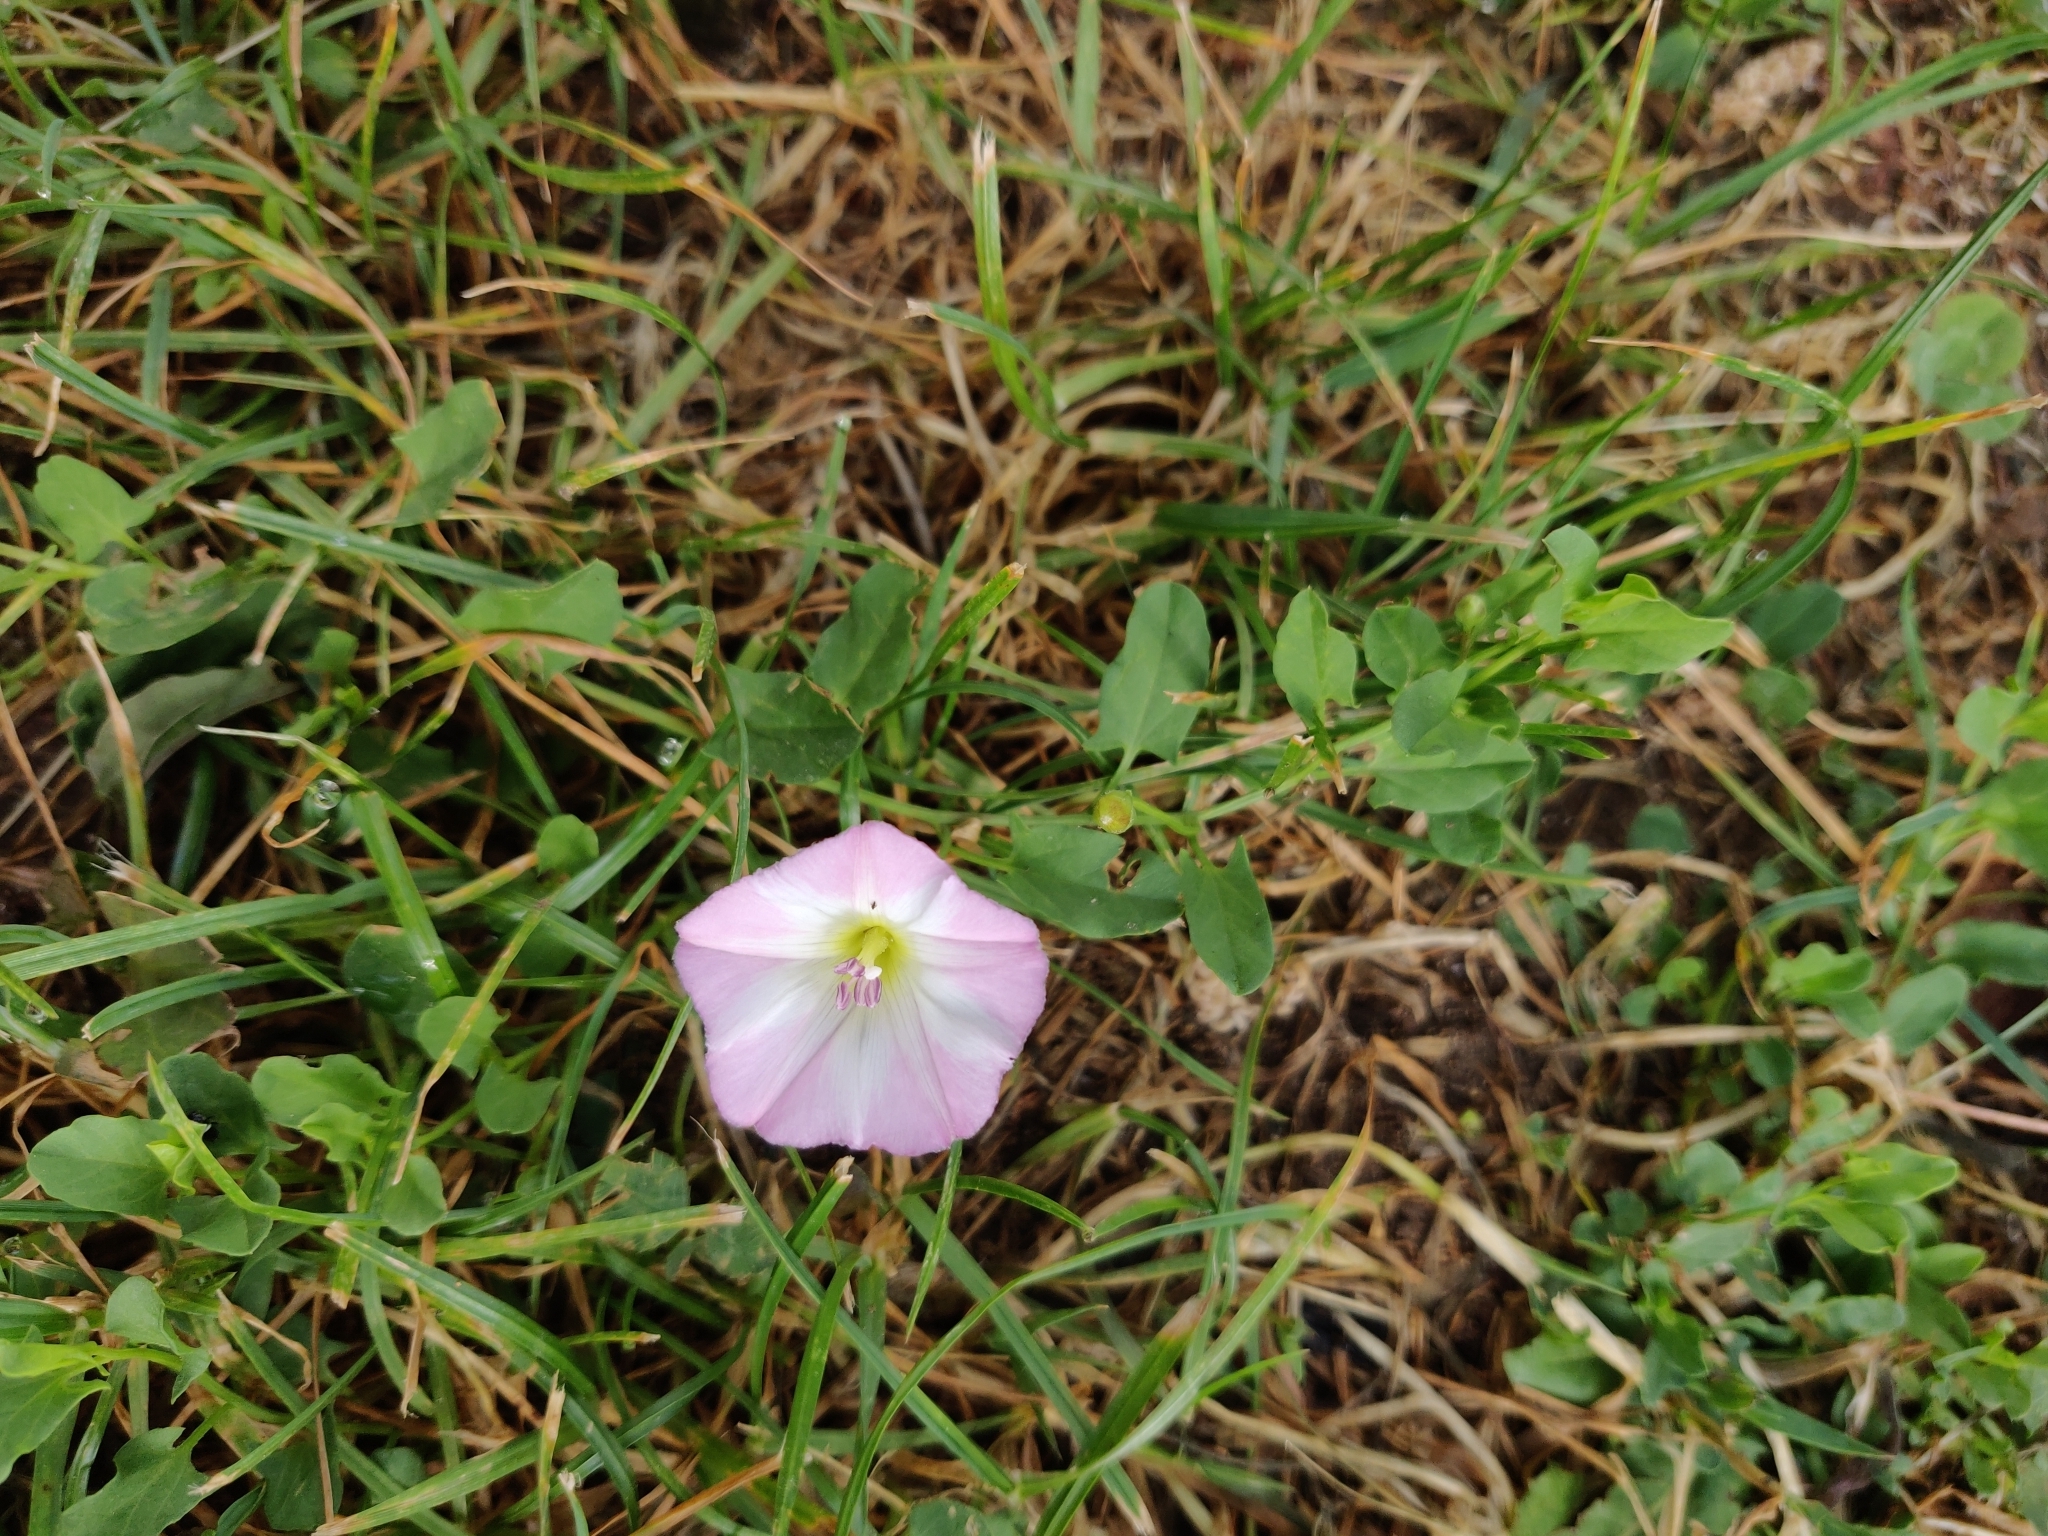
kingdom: Plantae
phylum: Tracheophyta
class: Magnoliopsida
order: Solanales
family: Convolvulaceae
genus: Convolvulus
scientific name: Convolvulus arvensis
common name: Field bindweed
